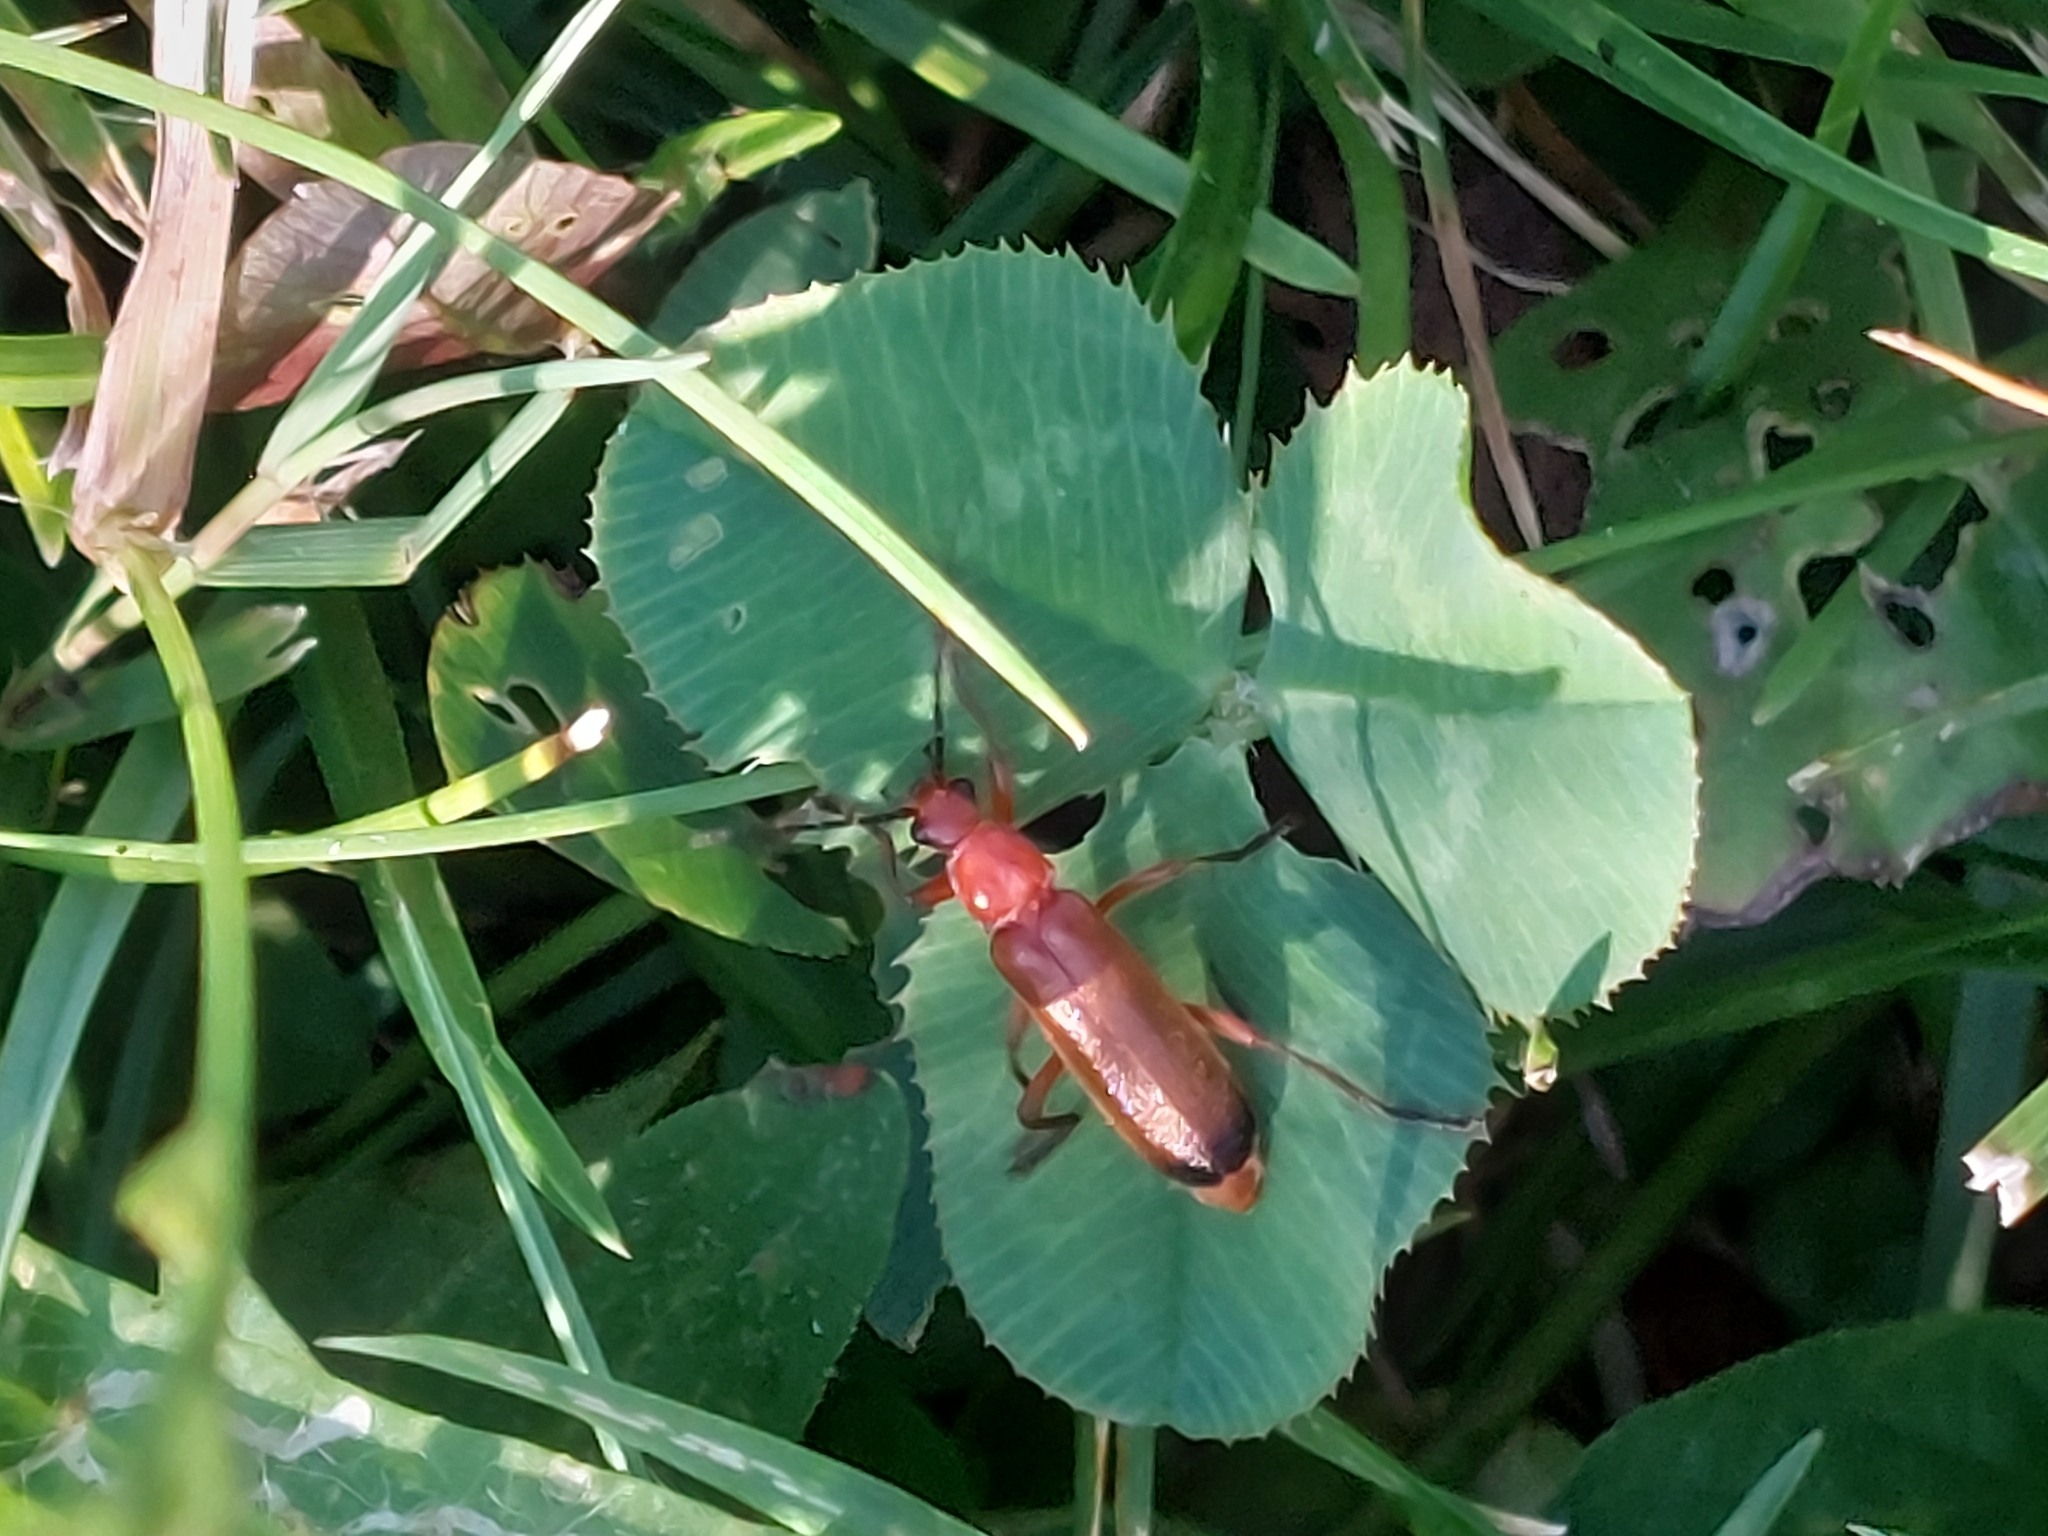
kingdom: Animalia
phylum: Arthropoda
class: Insecta
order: Coleoptera
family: Cantharidae
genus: Rhagonycha
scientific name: Rhagonycha fulva
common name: Common red soldier beetle
